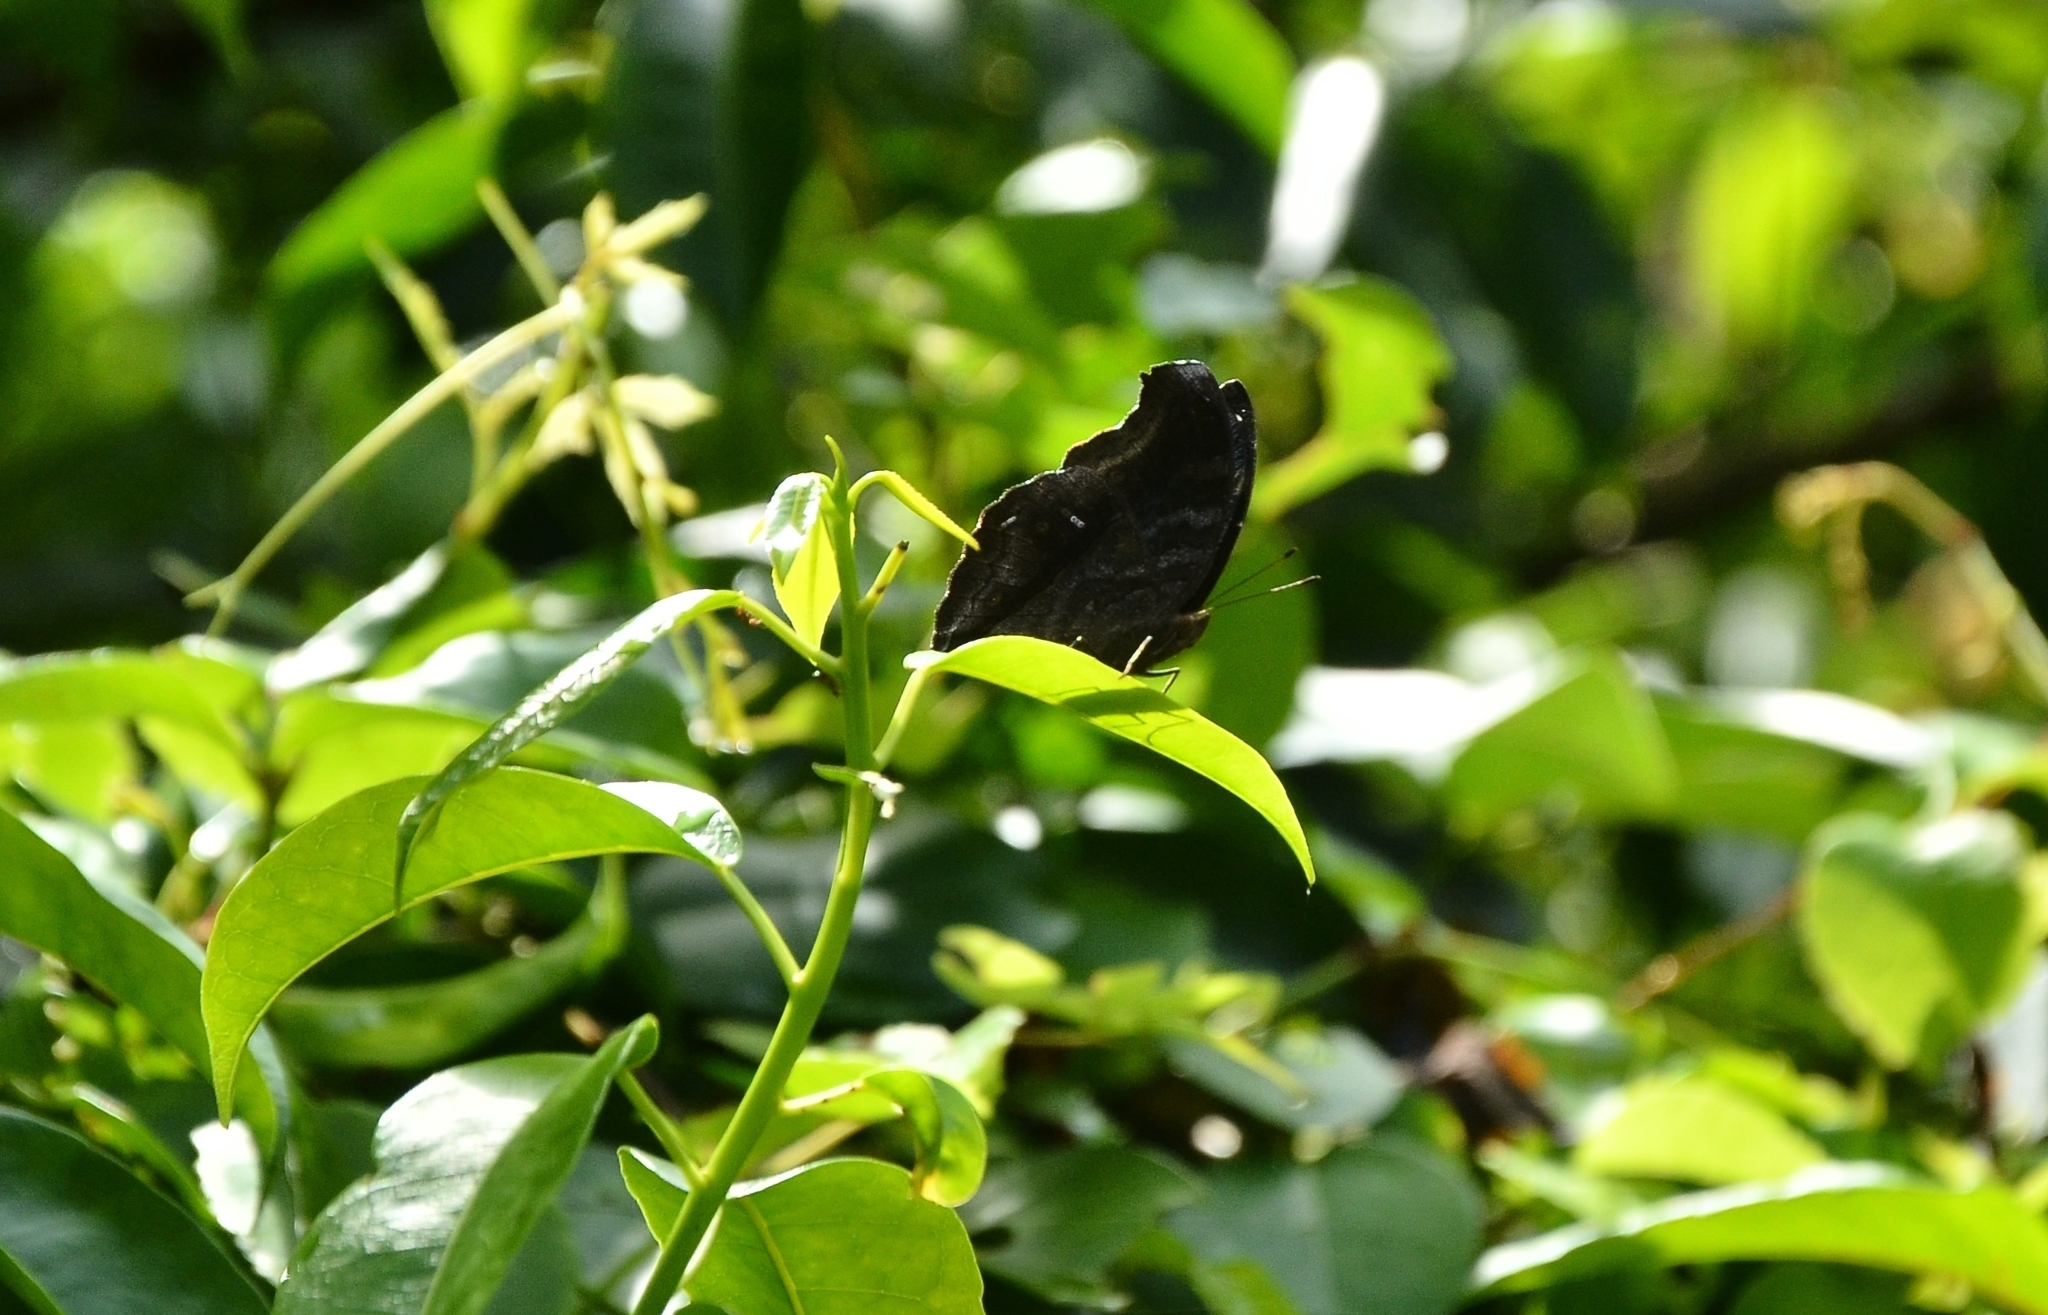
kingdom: Animalia
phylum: Arthropoda
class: Insecta
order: Lepidoptera
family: Nymphalidae
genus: Junonia
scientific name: Junonia iphita
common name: Chocolate pansy
